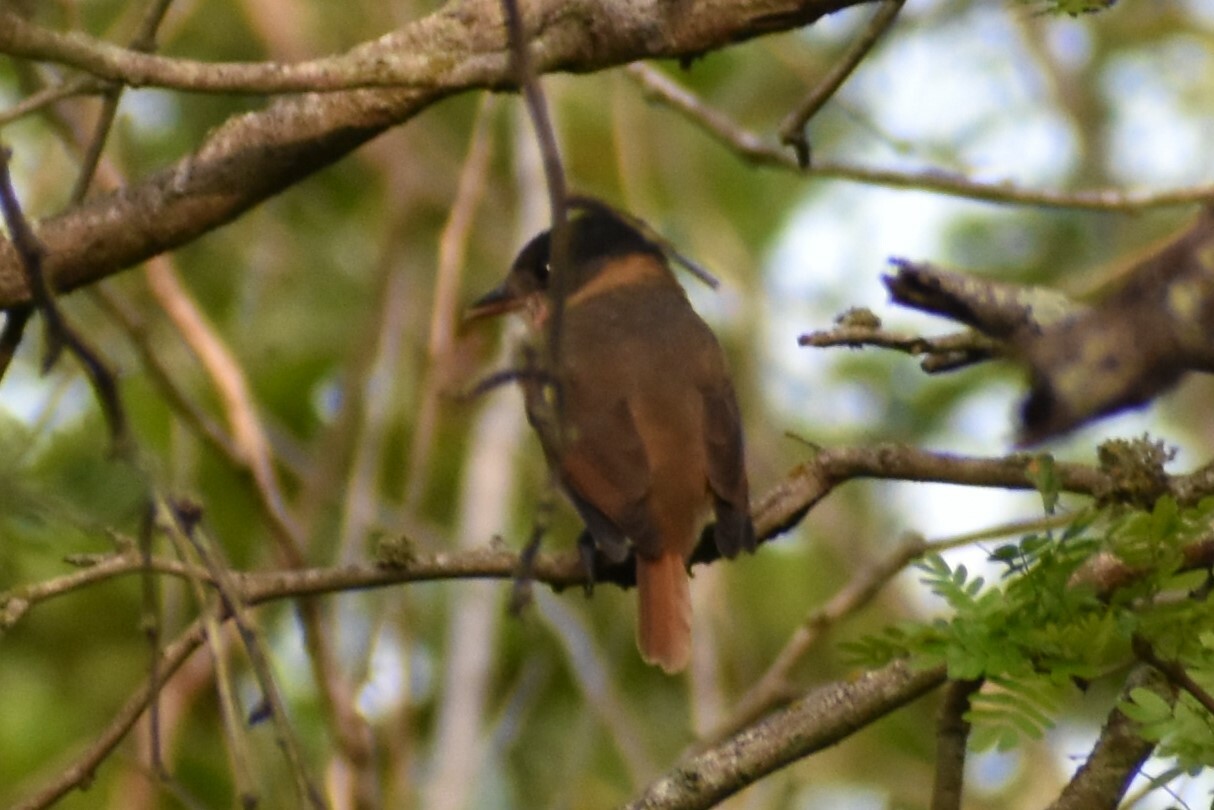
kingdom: Animalia
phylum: Chordata
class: Aves
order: Passeriformes
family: Cotingidae
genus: Pachyramphus
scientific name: Pachyramphus aglaiae
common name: Rose-throated becard
